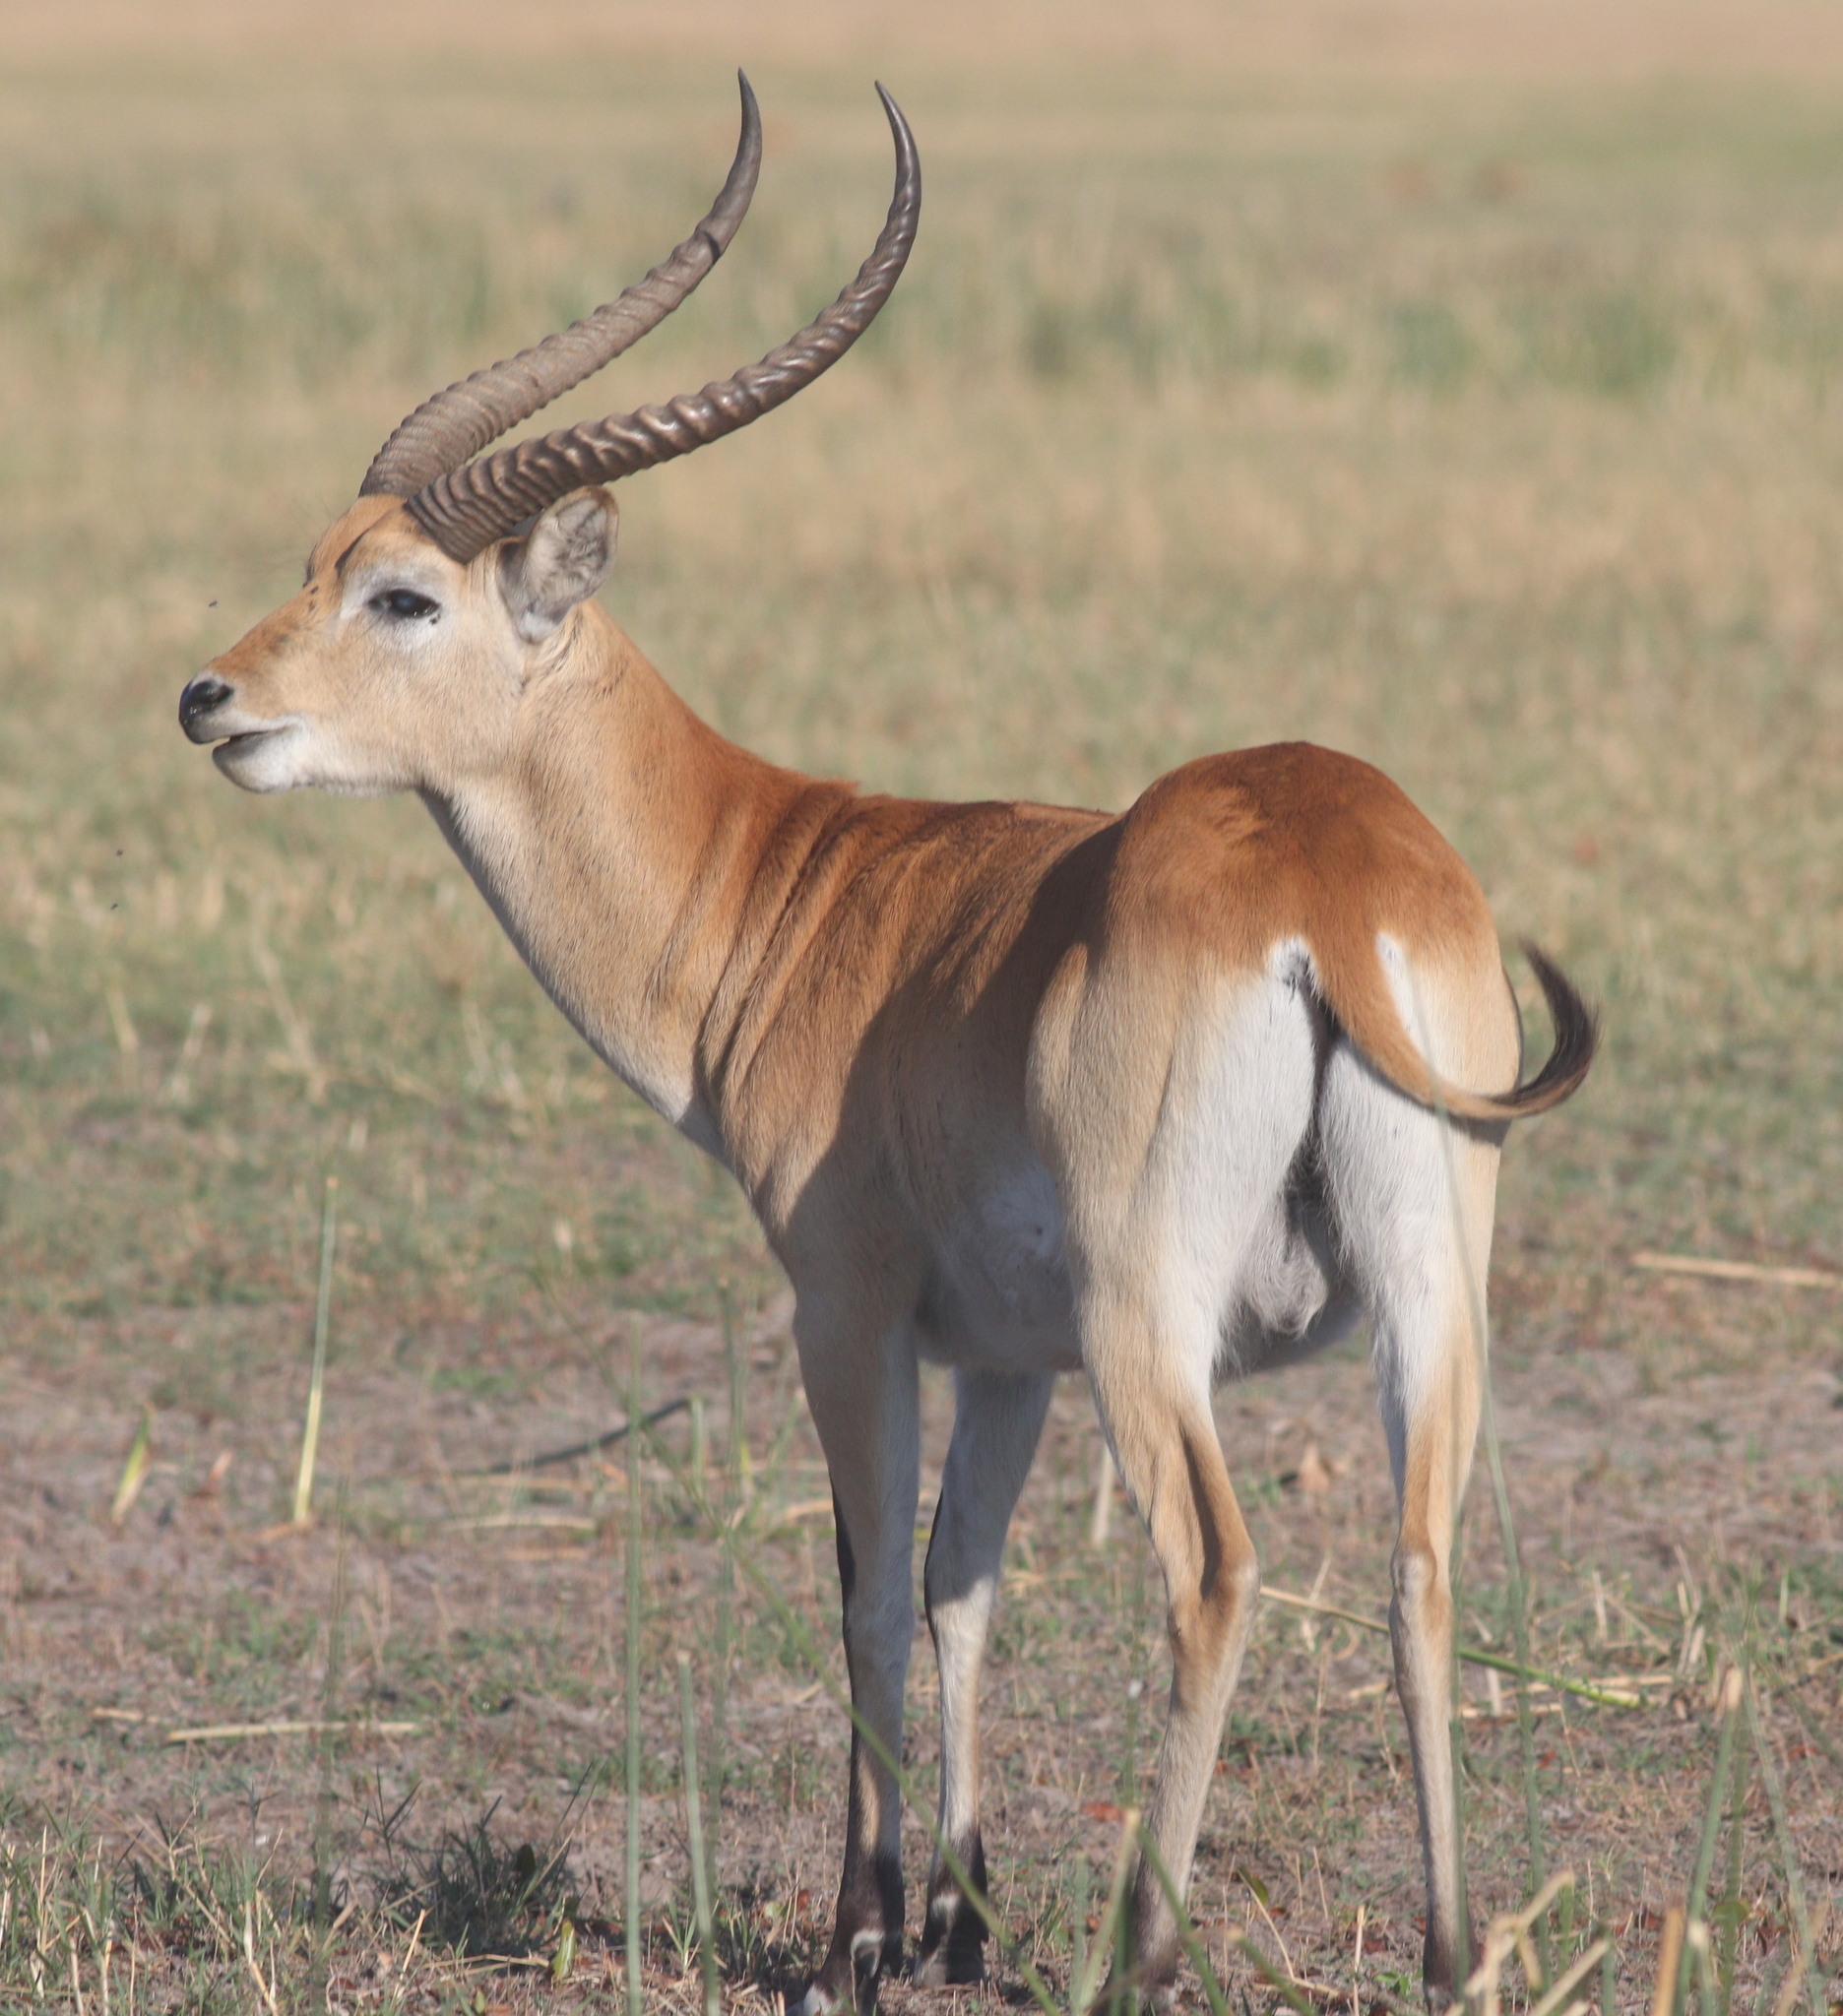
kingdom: Animalia
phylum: Chordata
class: Mammalia
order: Artiodactyla
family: Bovidae
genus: Kobus
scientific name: Kobus leche
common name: Lechwe
